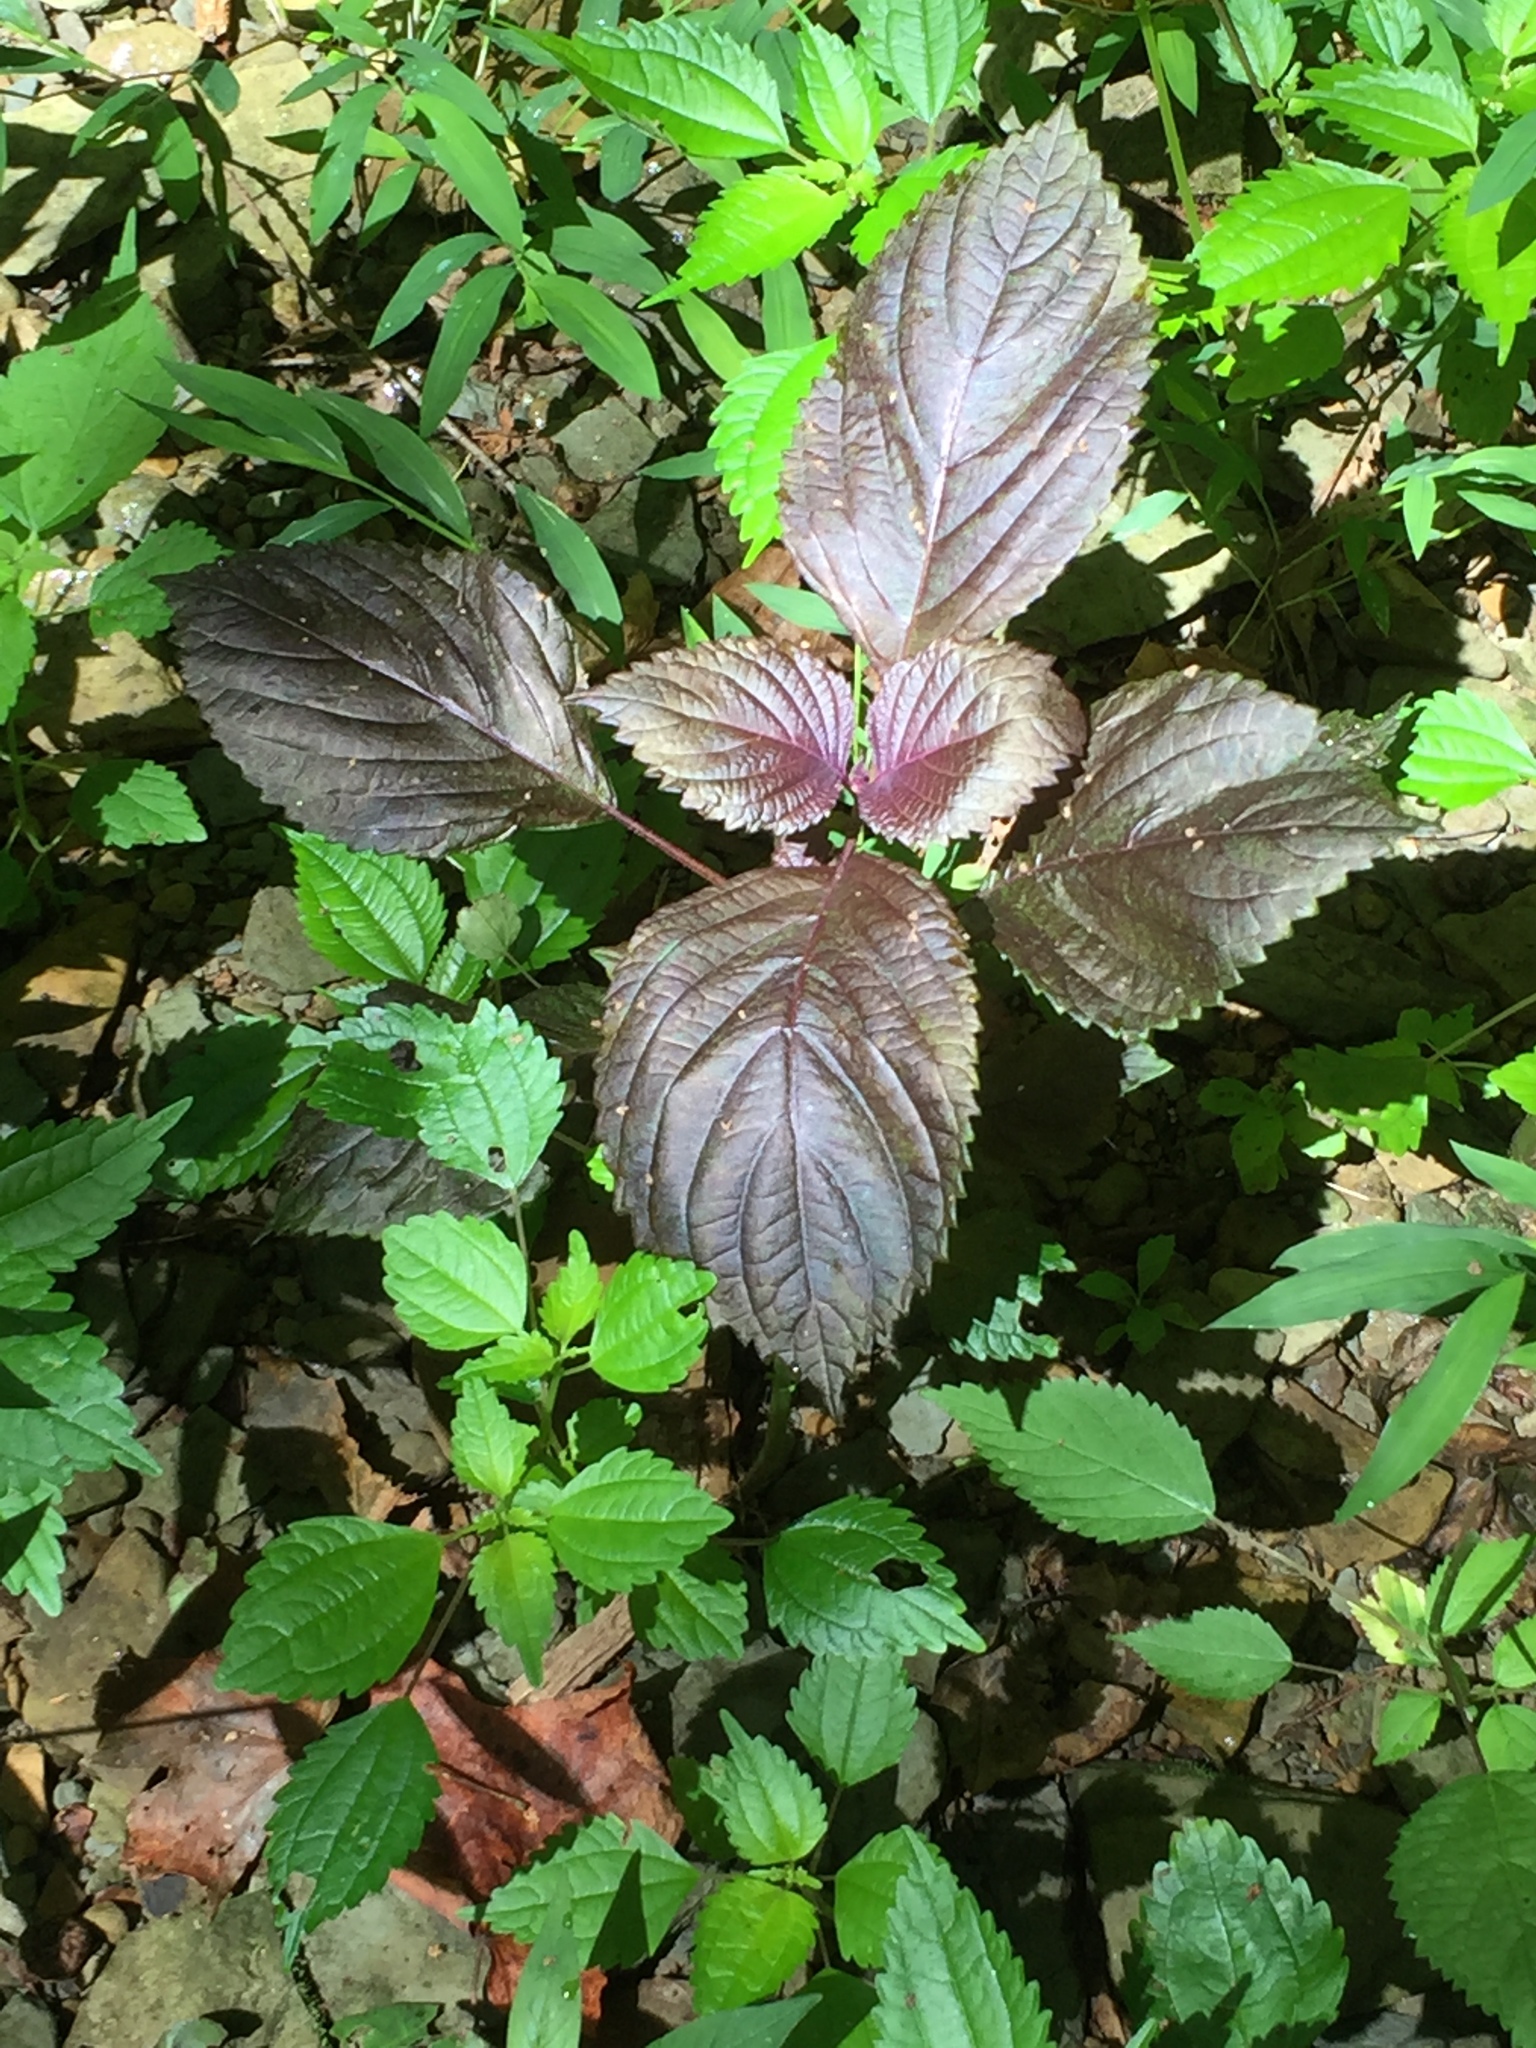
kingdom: Plantae
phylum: Tracheophyta
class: Magnoliopsida
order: Lamiales
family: Lamiaceae
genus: Perilla
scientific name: Perilla frutescens
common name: Perilla
